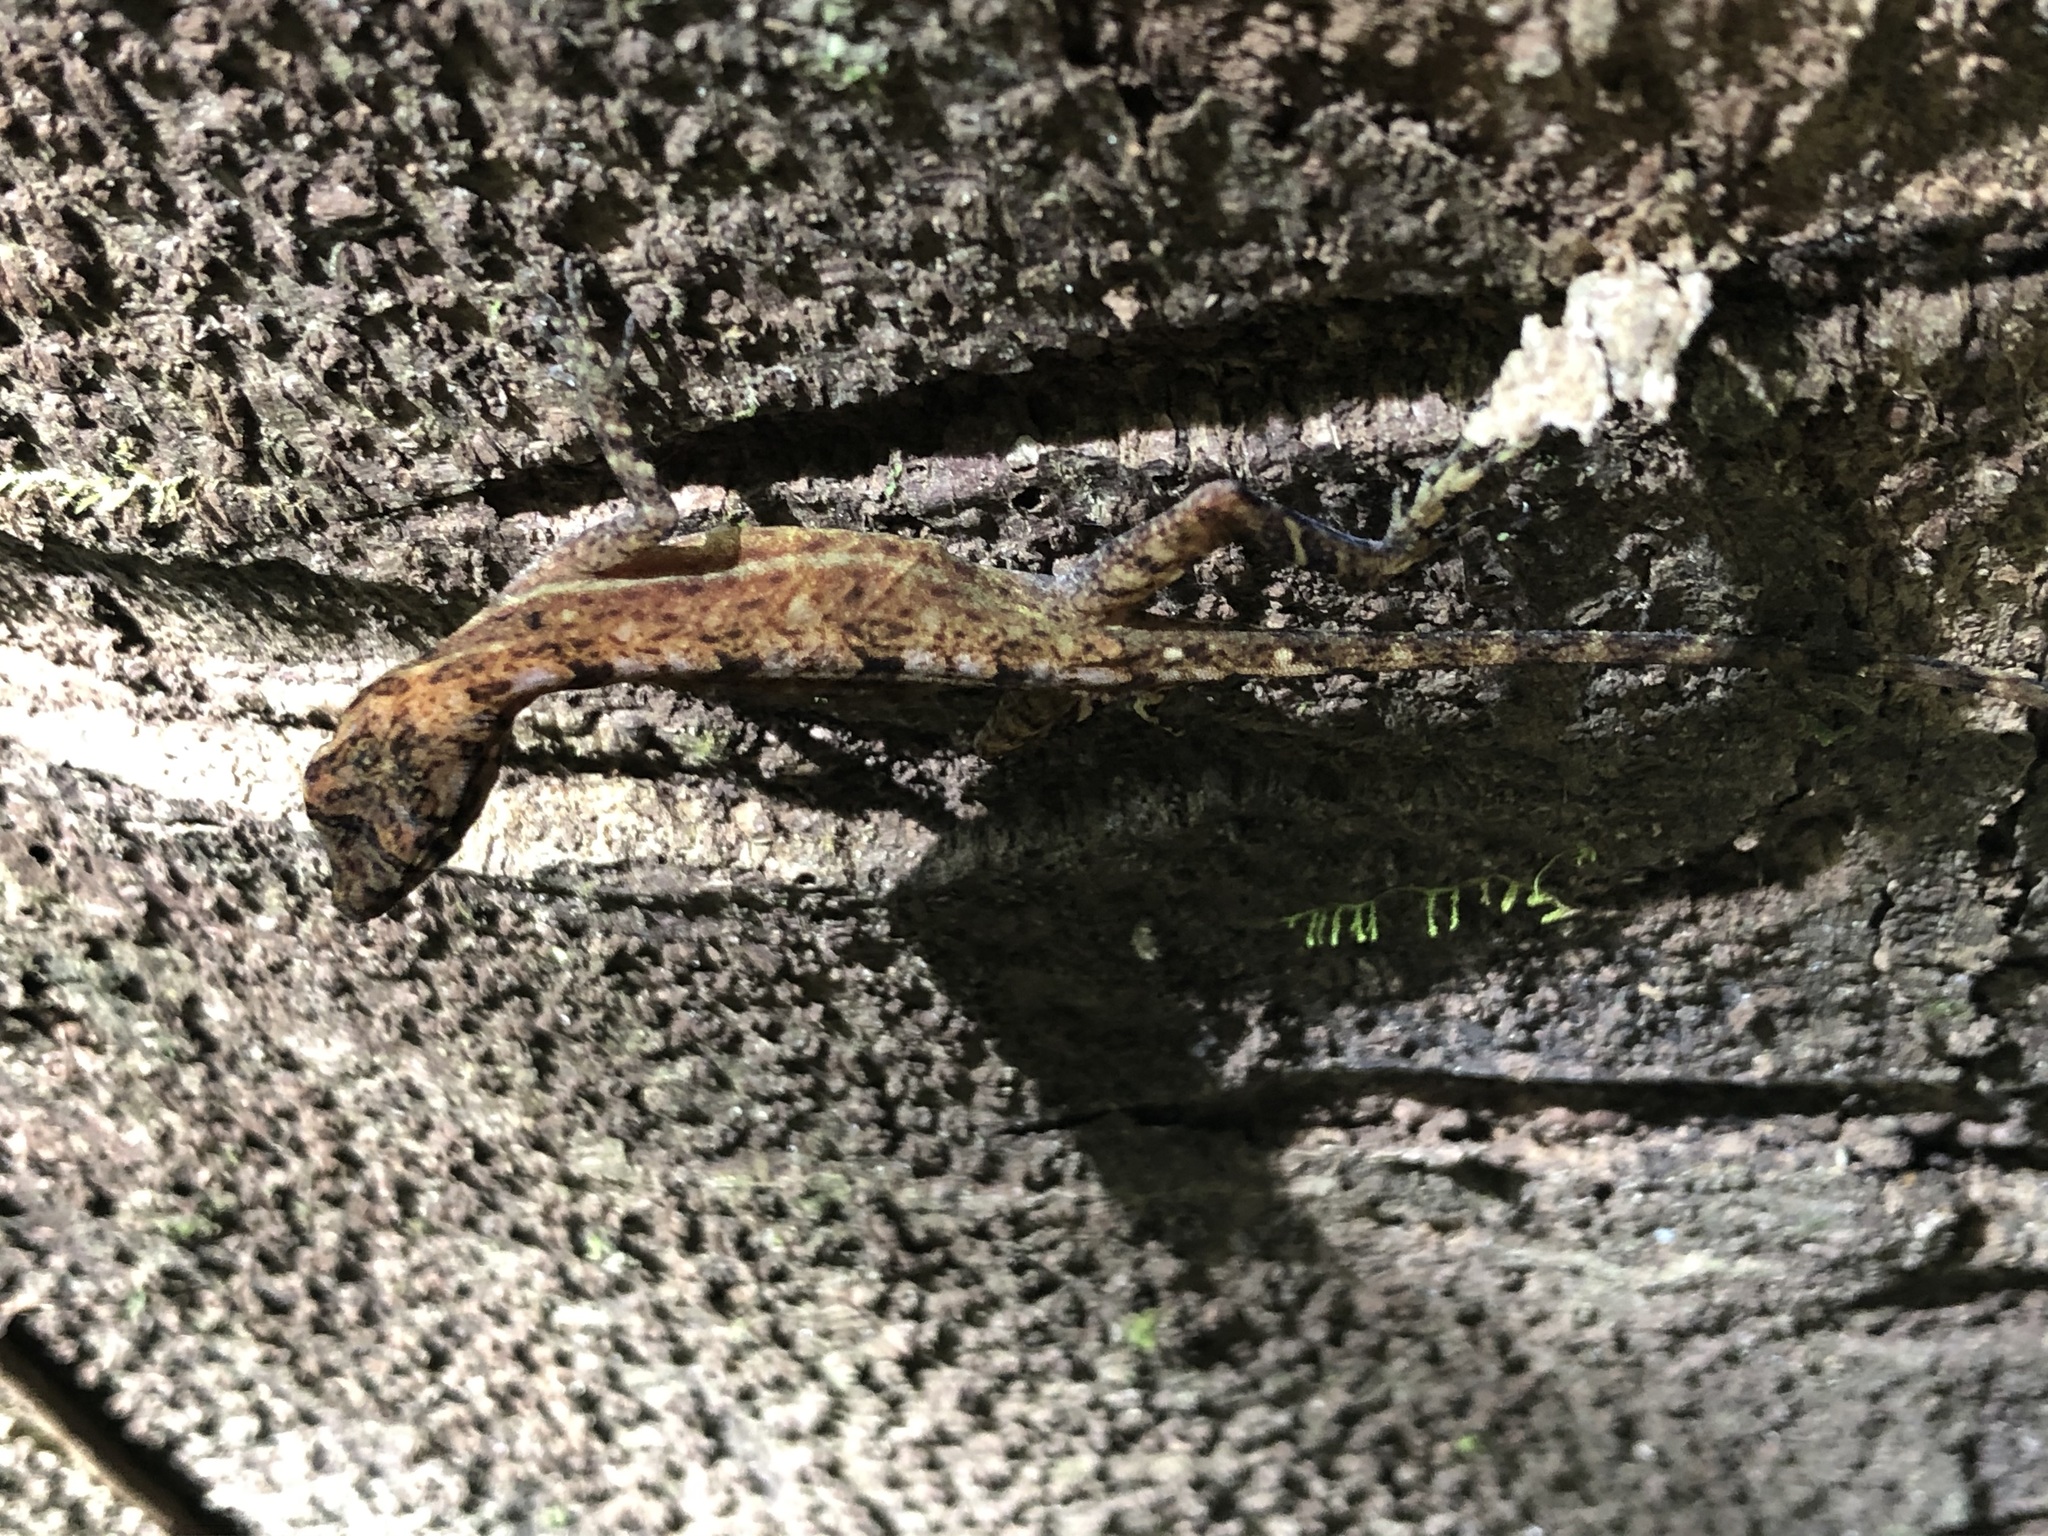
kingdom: Animalia
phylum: Chordata
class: Squamata
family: Dactyloidae
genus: Anolis
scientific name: Anolis capito
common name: Bighead anole
